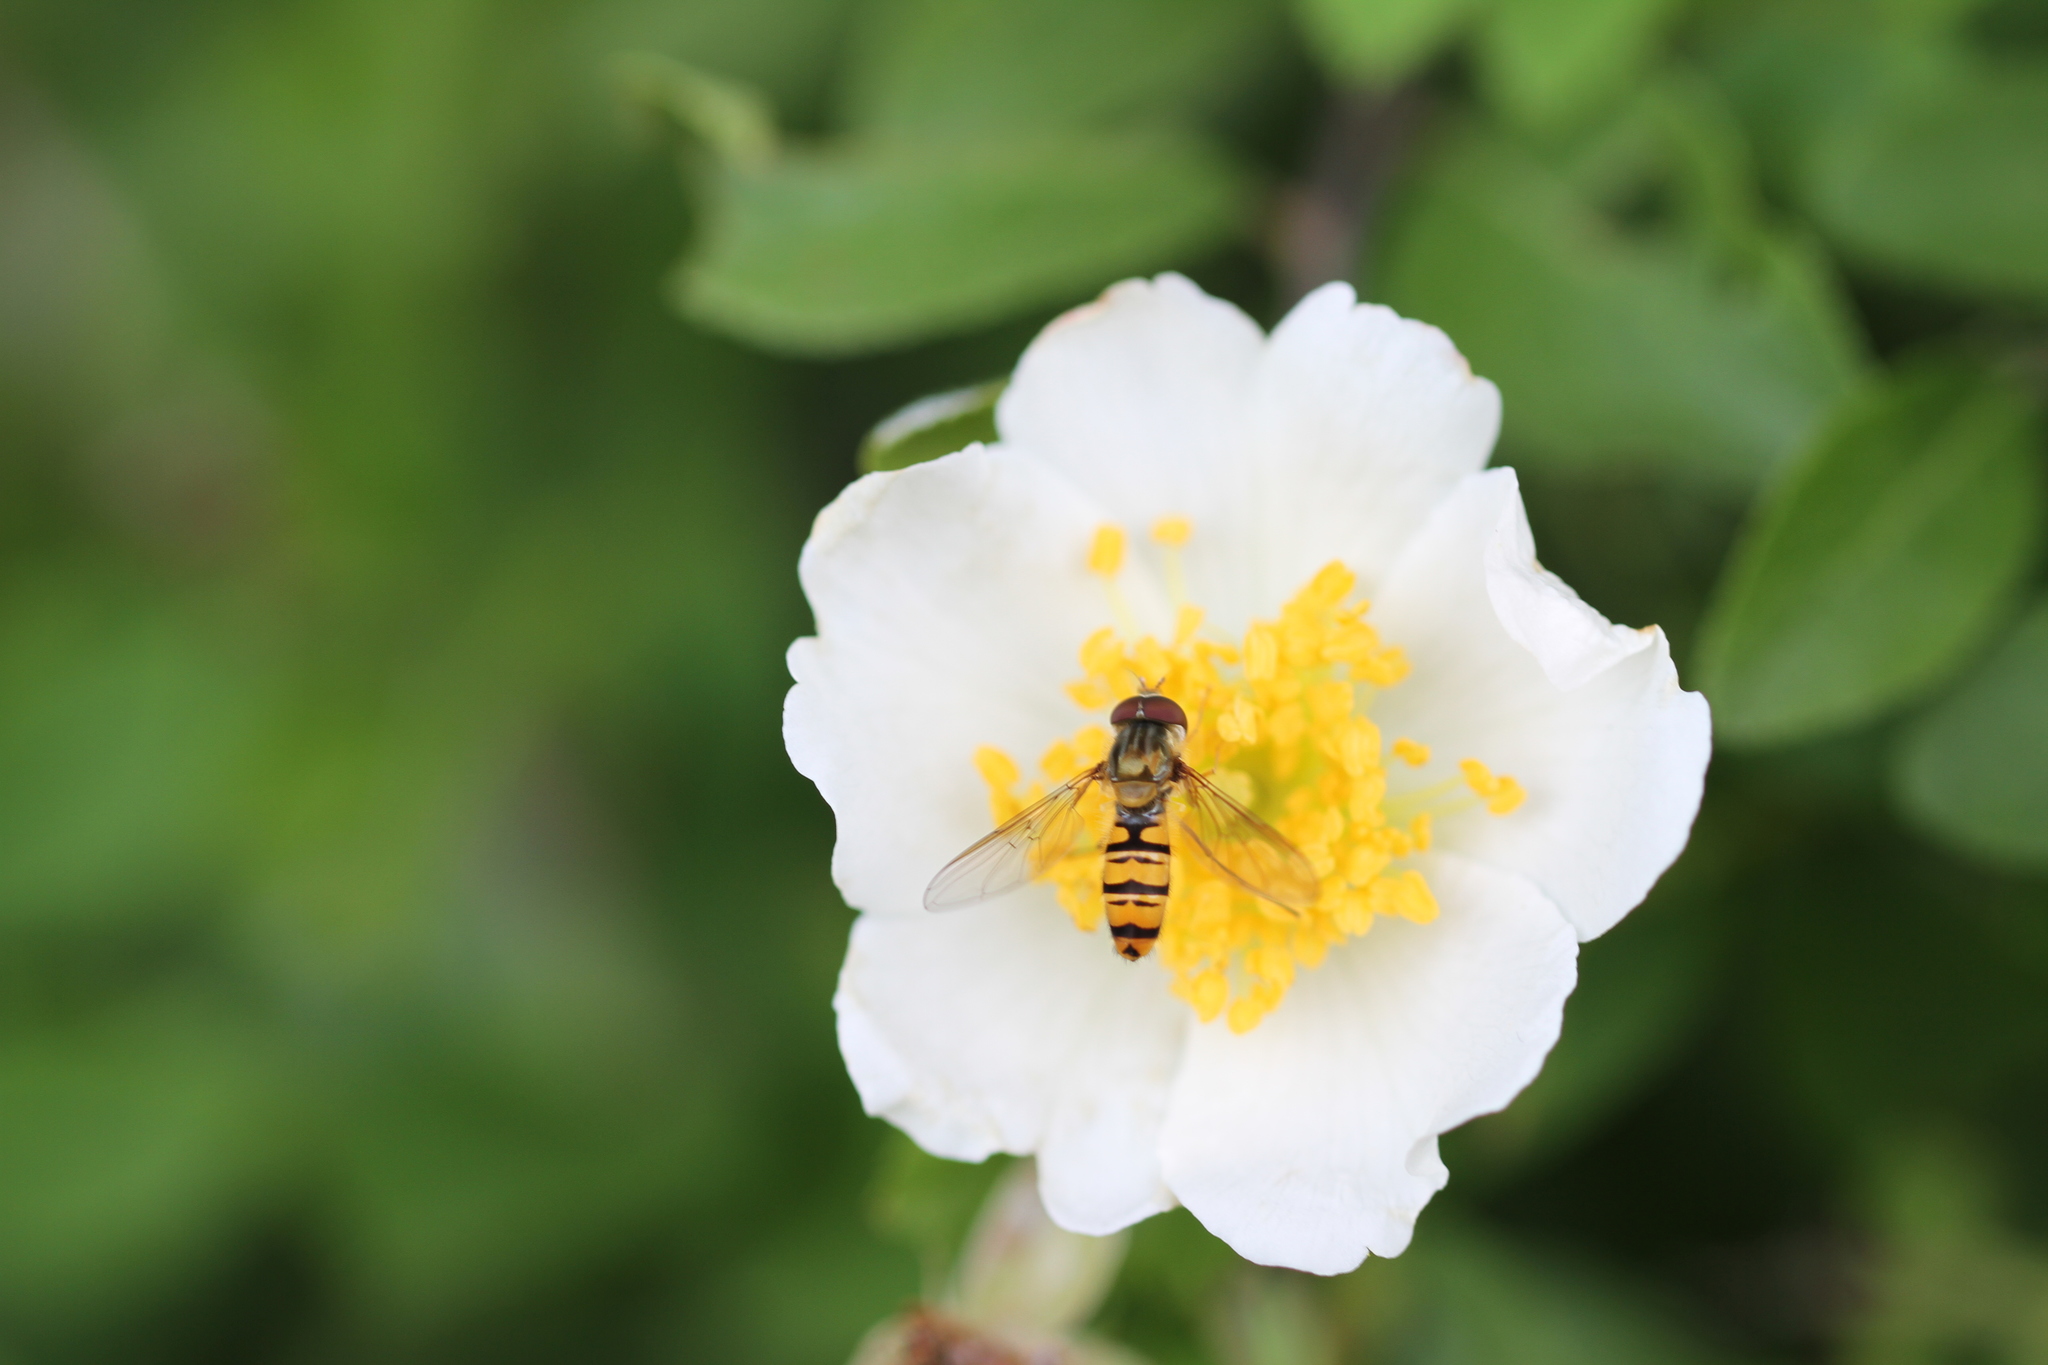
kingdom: Animalia
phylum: Arthropoda
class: Insecta
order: Diptera
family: Syrphidae
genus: Episyrphus
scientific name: Episyrphus balteatus
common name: Marmalade hoverfly
